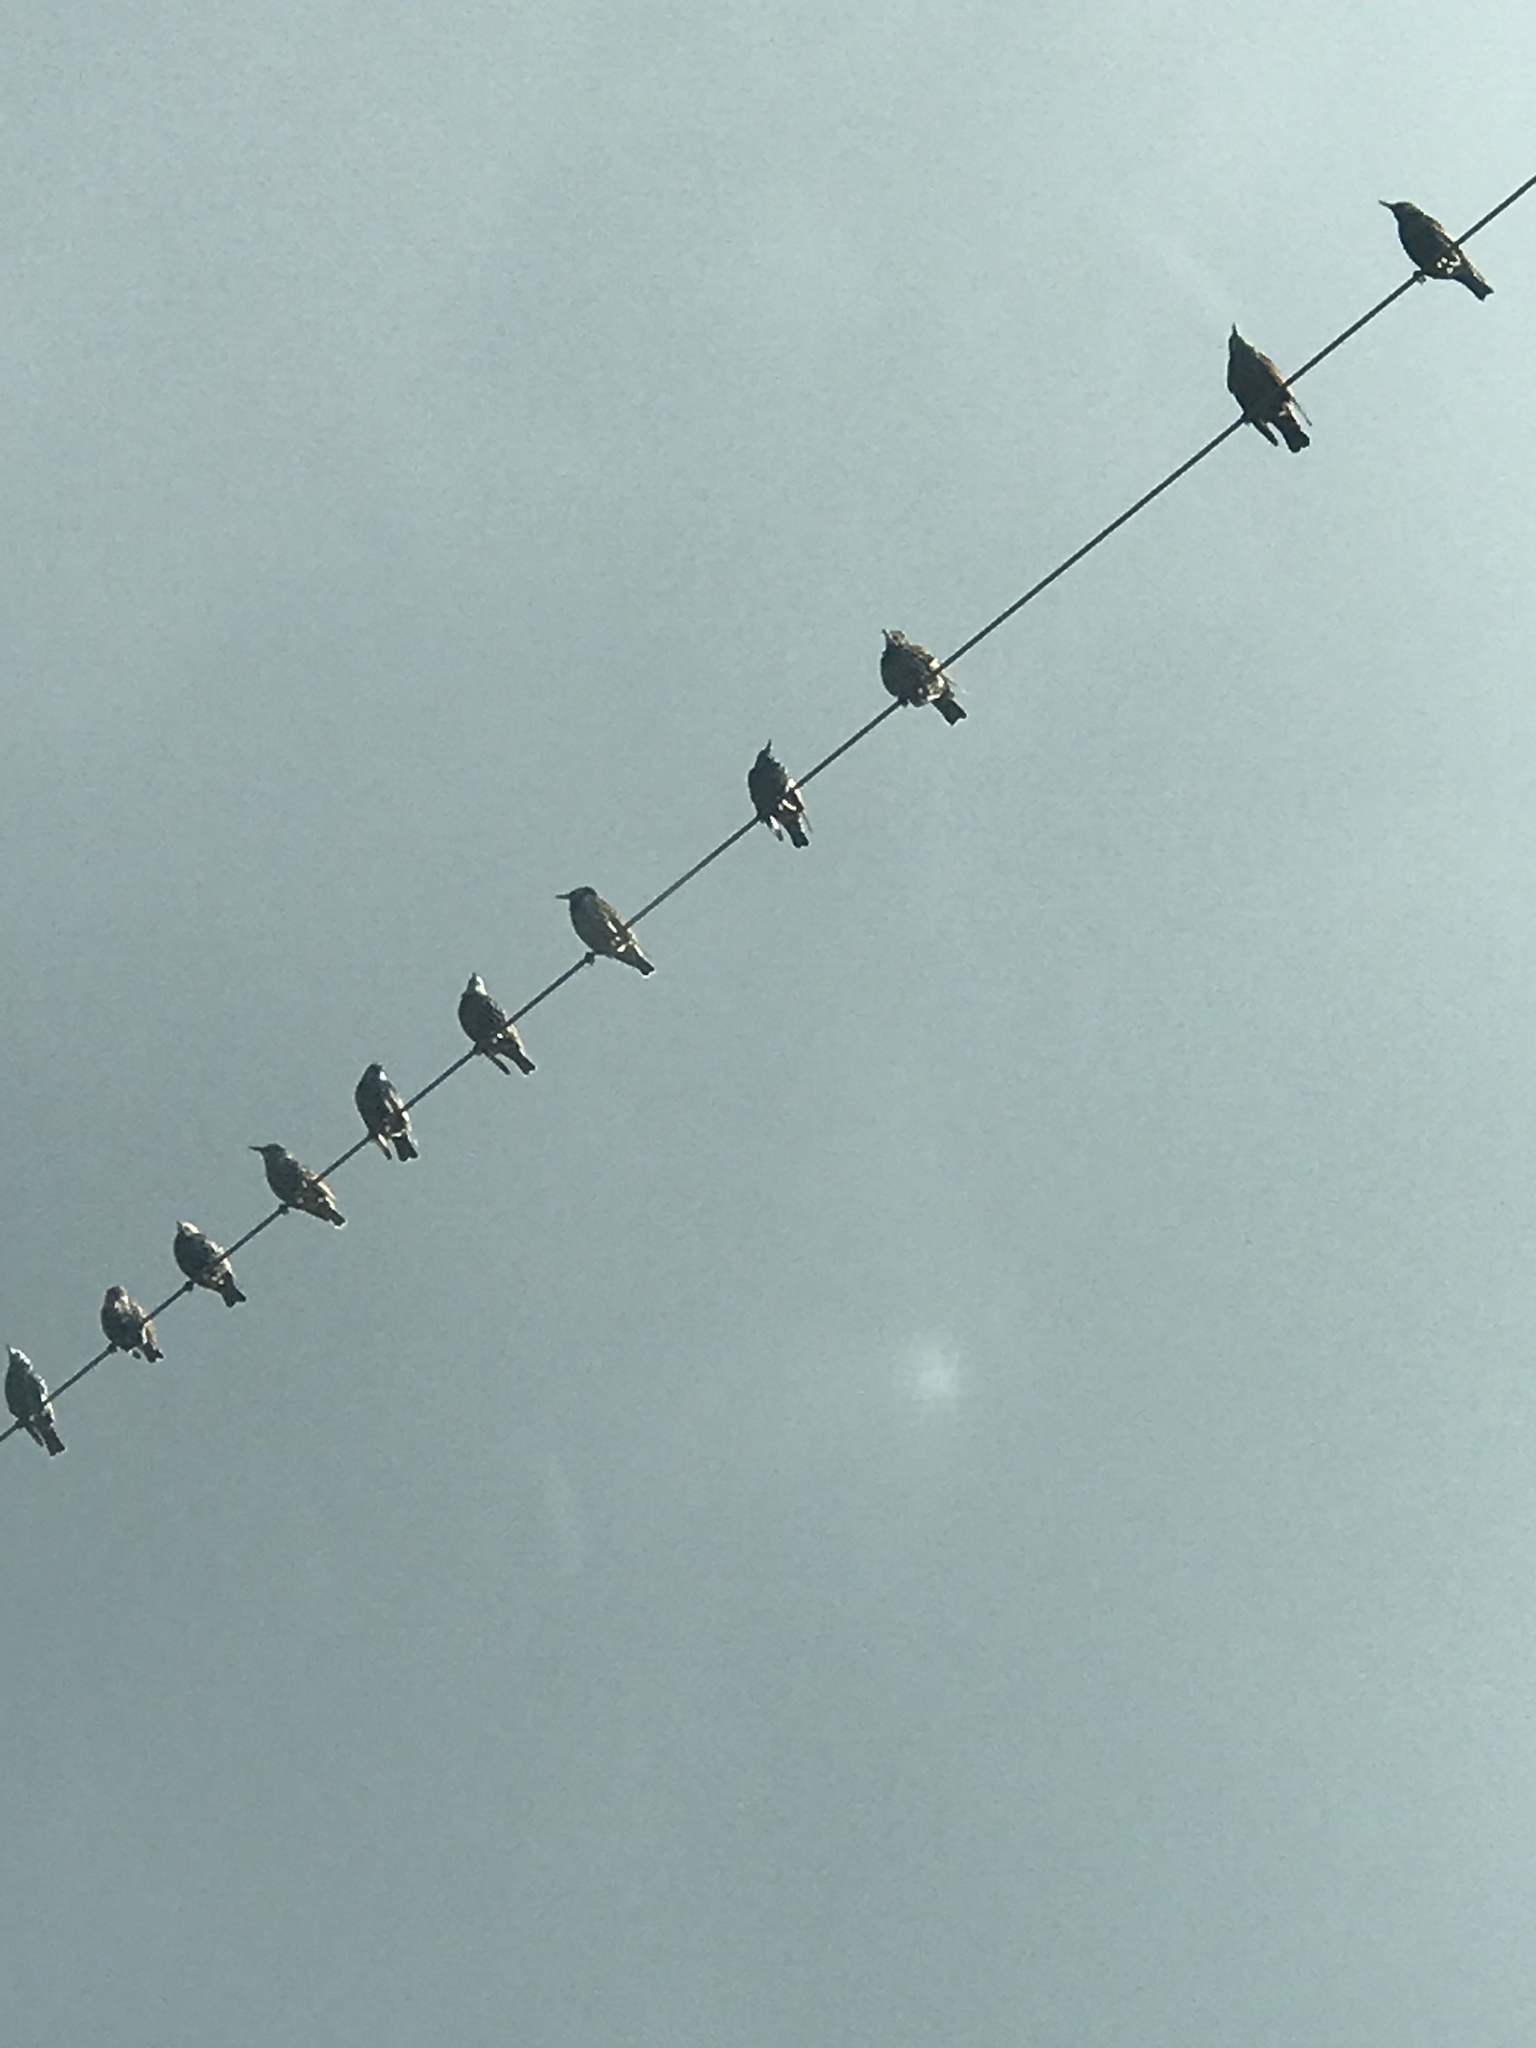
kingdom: Animalia
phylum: Chordata
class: Aves
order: Passeriformes
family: Sturnidae
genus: Sturnus
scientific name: Sturnus vulgaris
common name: Common starling
